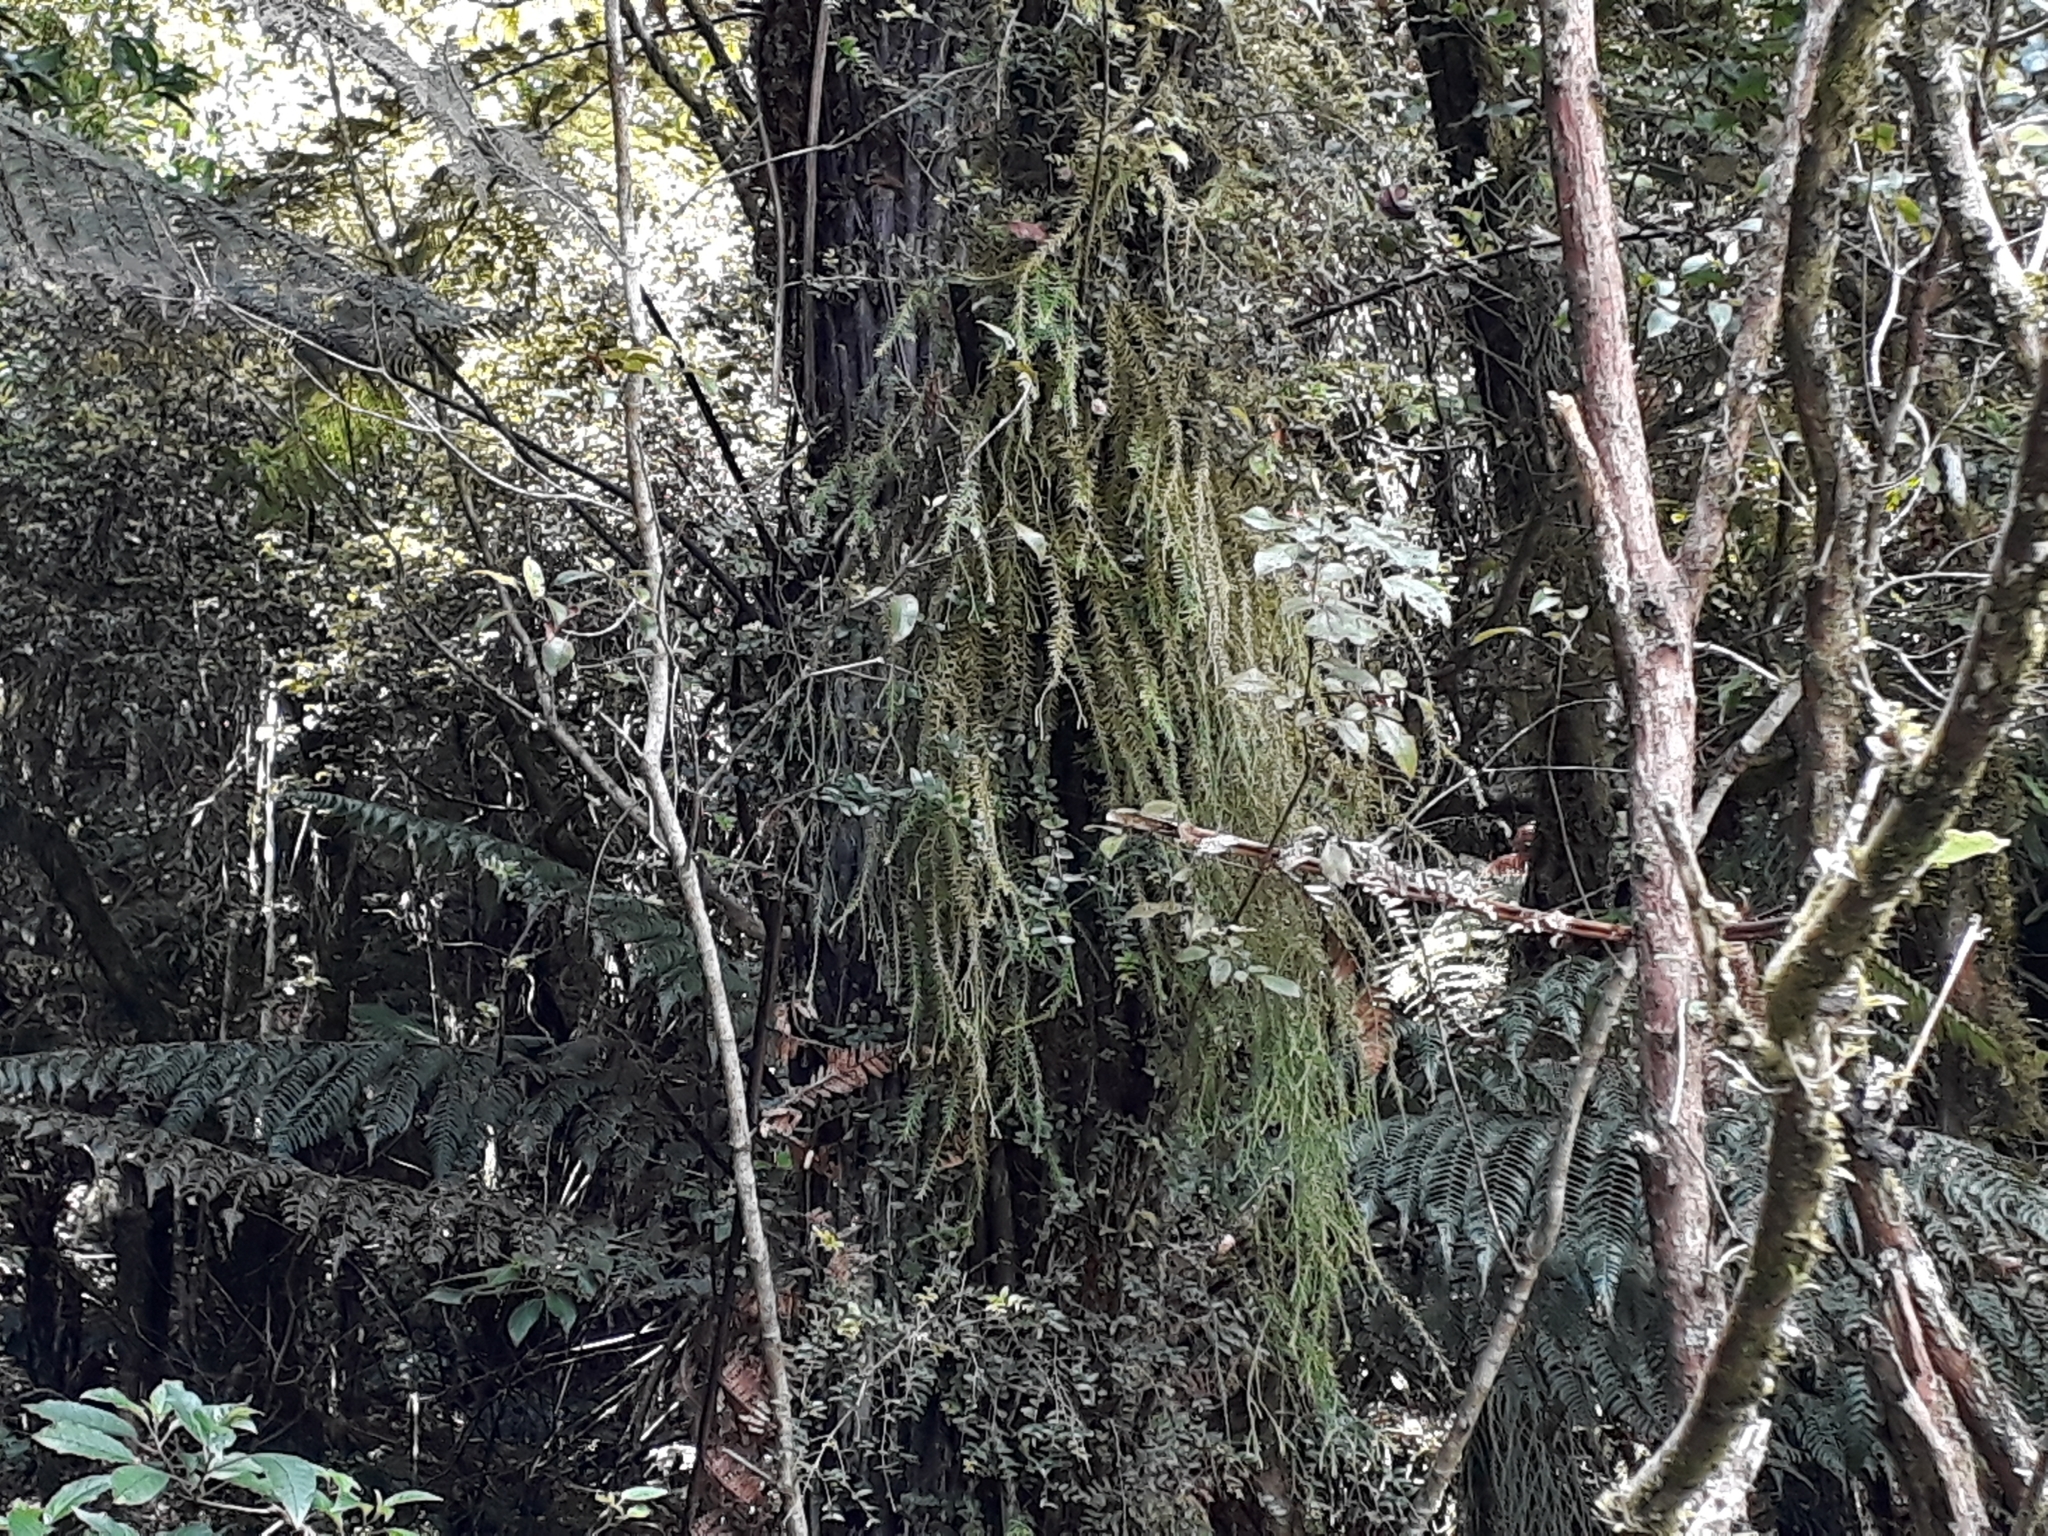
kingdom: Plantae
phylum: Tracheophyta
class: Lycopodiopsida
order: Lycopodiales
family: Lycopodiaceae
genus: Phlegmariurus
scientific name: Phlegmariurus varius
